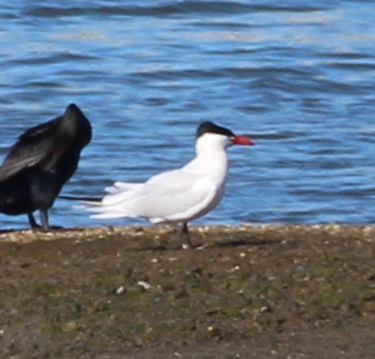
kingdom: Animalia
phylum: Chordata
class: Aves
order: Charadriiformes
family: Laridae
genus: Hydroprogne
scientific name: Hydroprogne caspia
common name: Caspian tern
